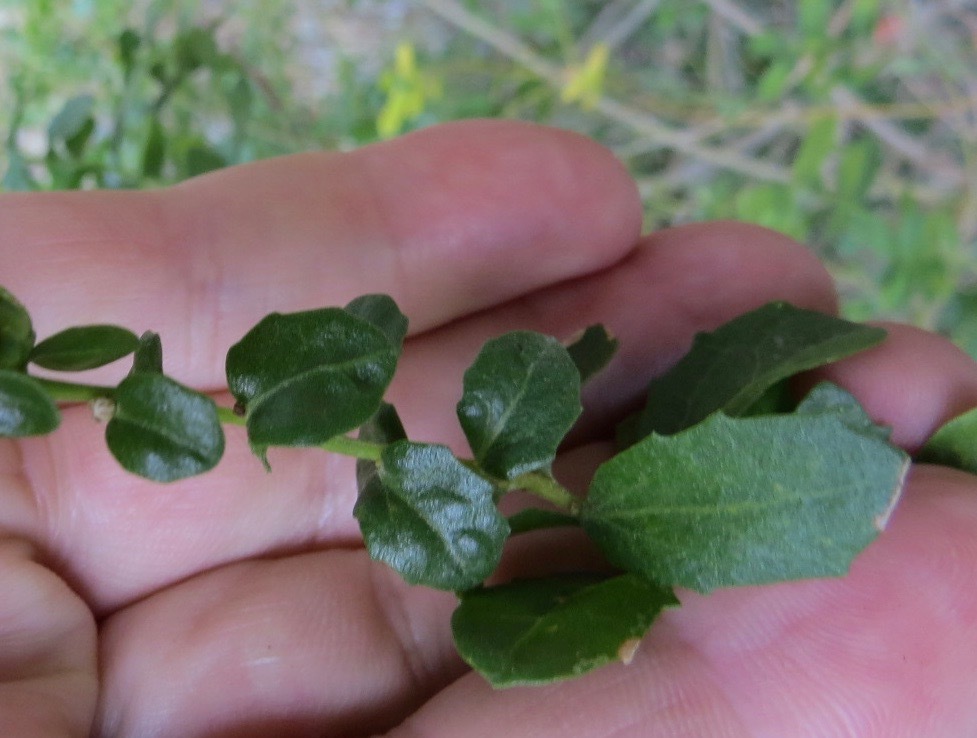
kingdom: Animalia
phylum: Arthropoda
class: Arachnida
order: Trombidiformes
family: Eriophyidae
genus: Aceria
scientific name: Aceria
